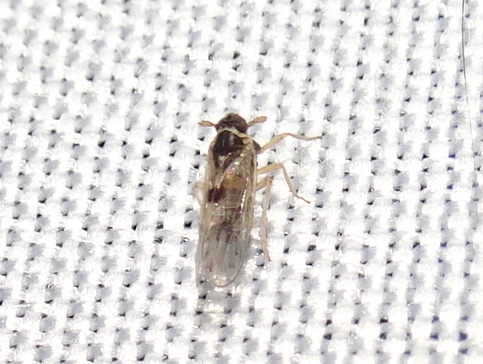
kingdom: Animalia
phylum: Arthropoda
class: Insecta
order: Hemiptera
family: Delphacidae
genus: Chionomus
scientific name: Chionomus
